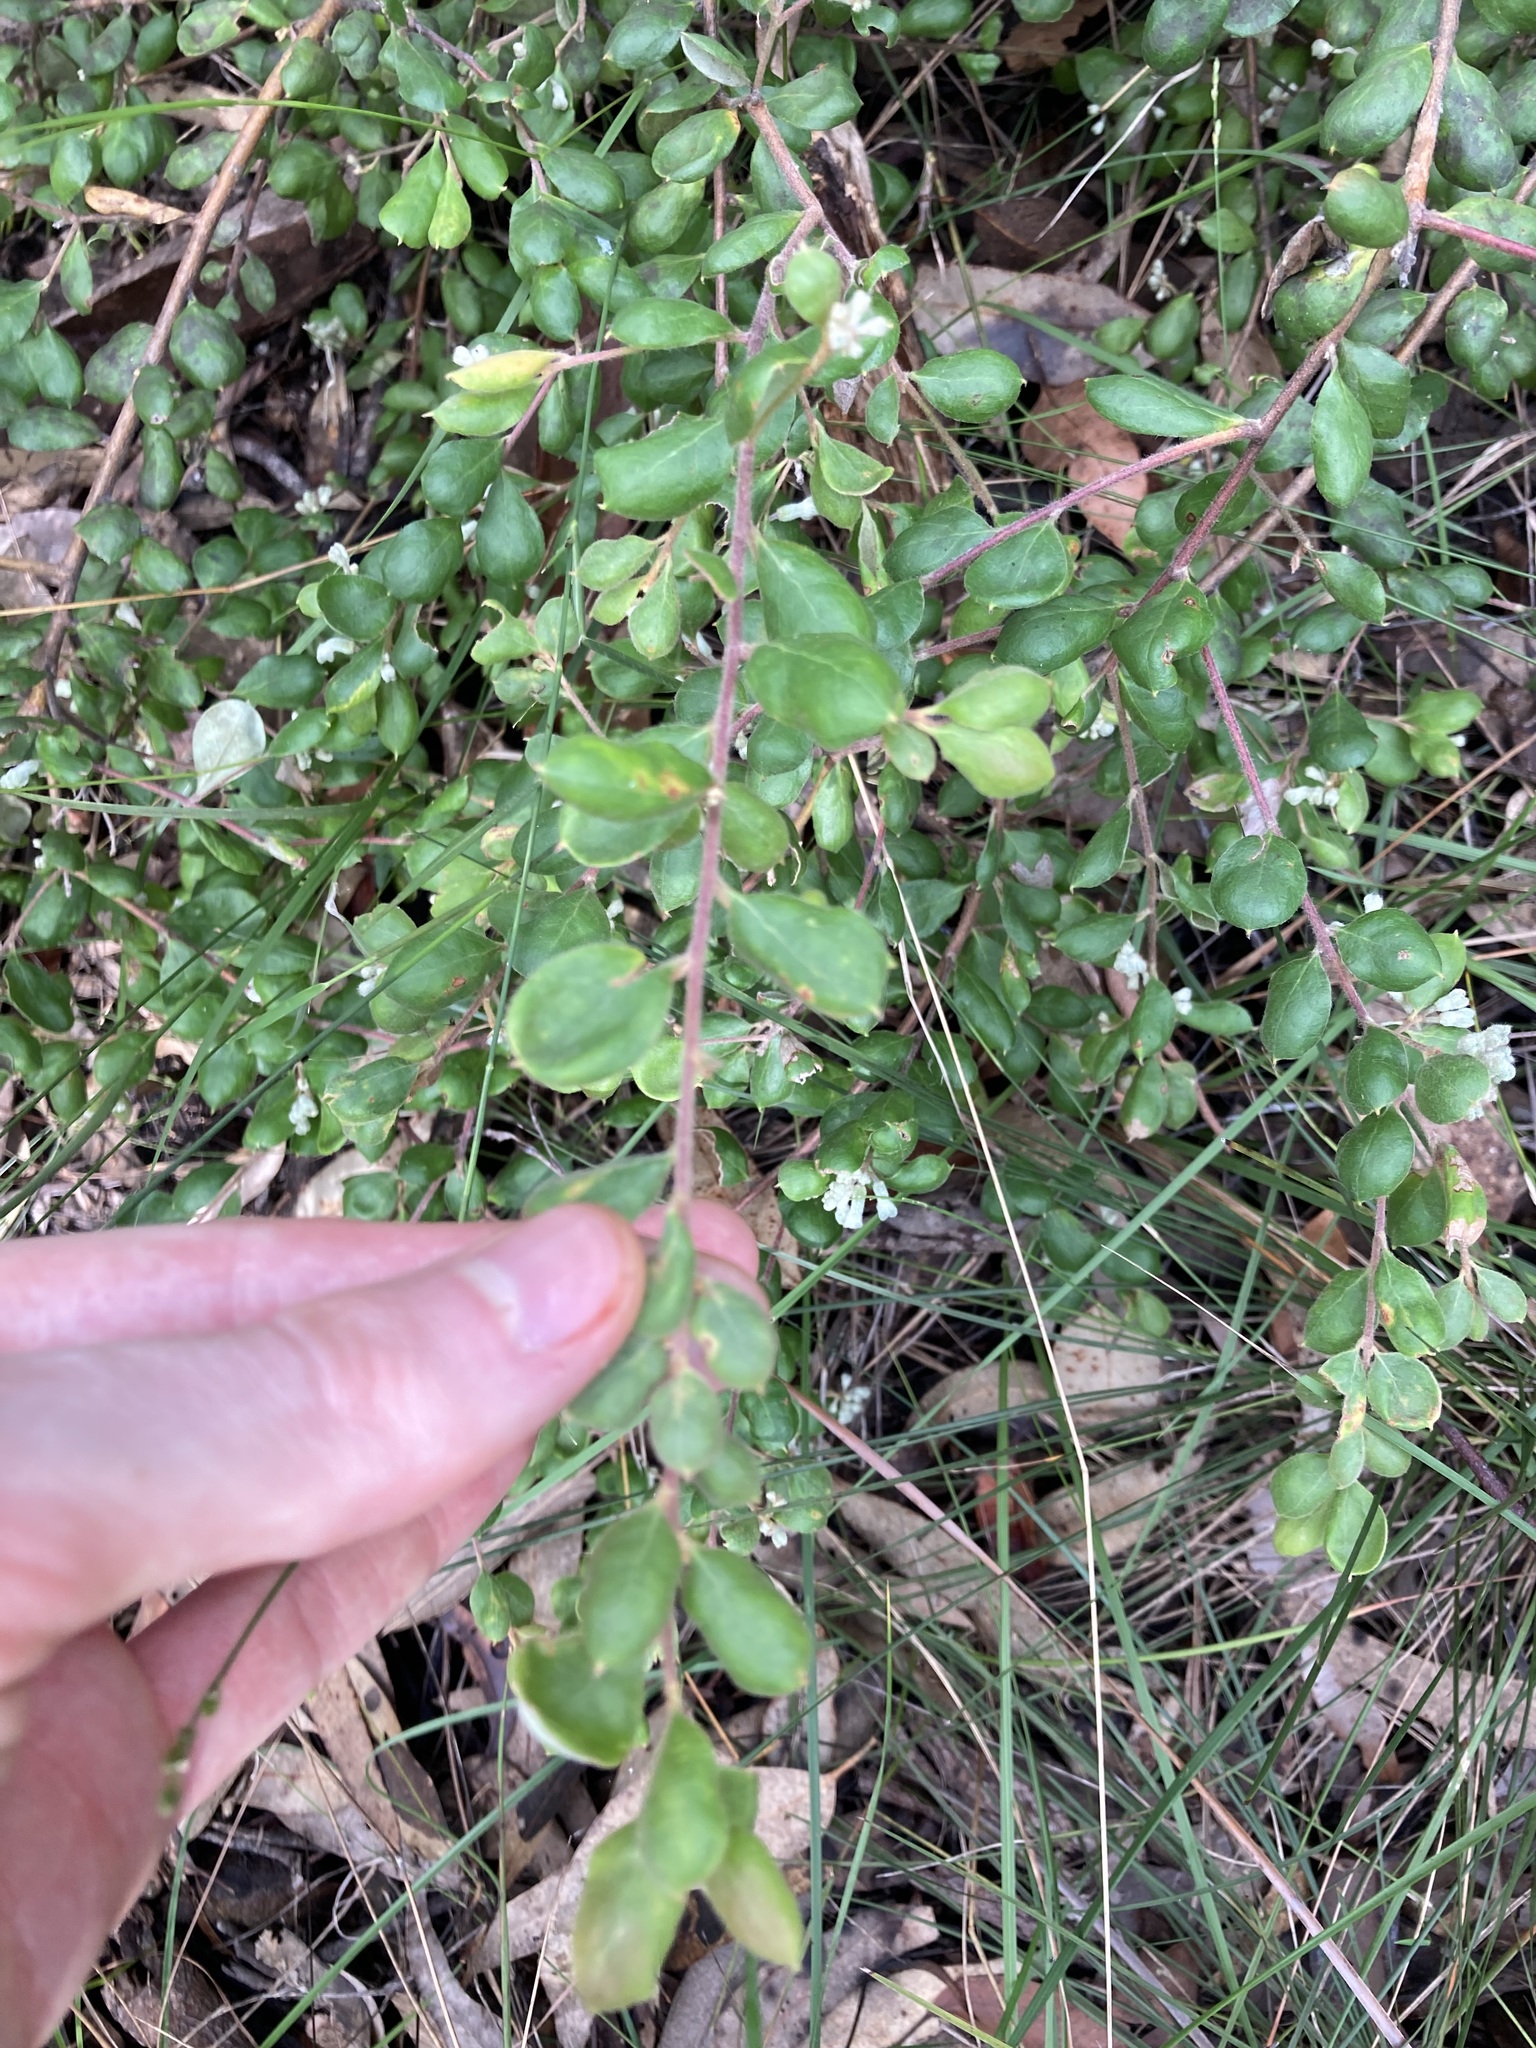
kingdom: Plantae
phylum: Tracheophyta
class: Magnoliopsida
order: Proteales
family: Proteaceae
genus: Grevillea
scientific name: Grevillea mucronulata
